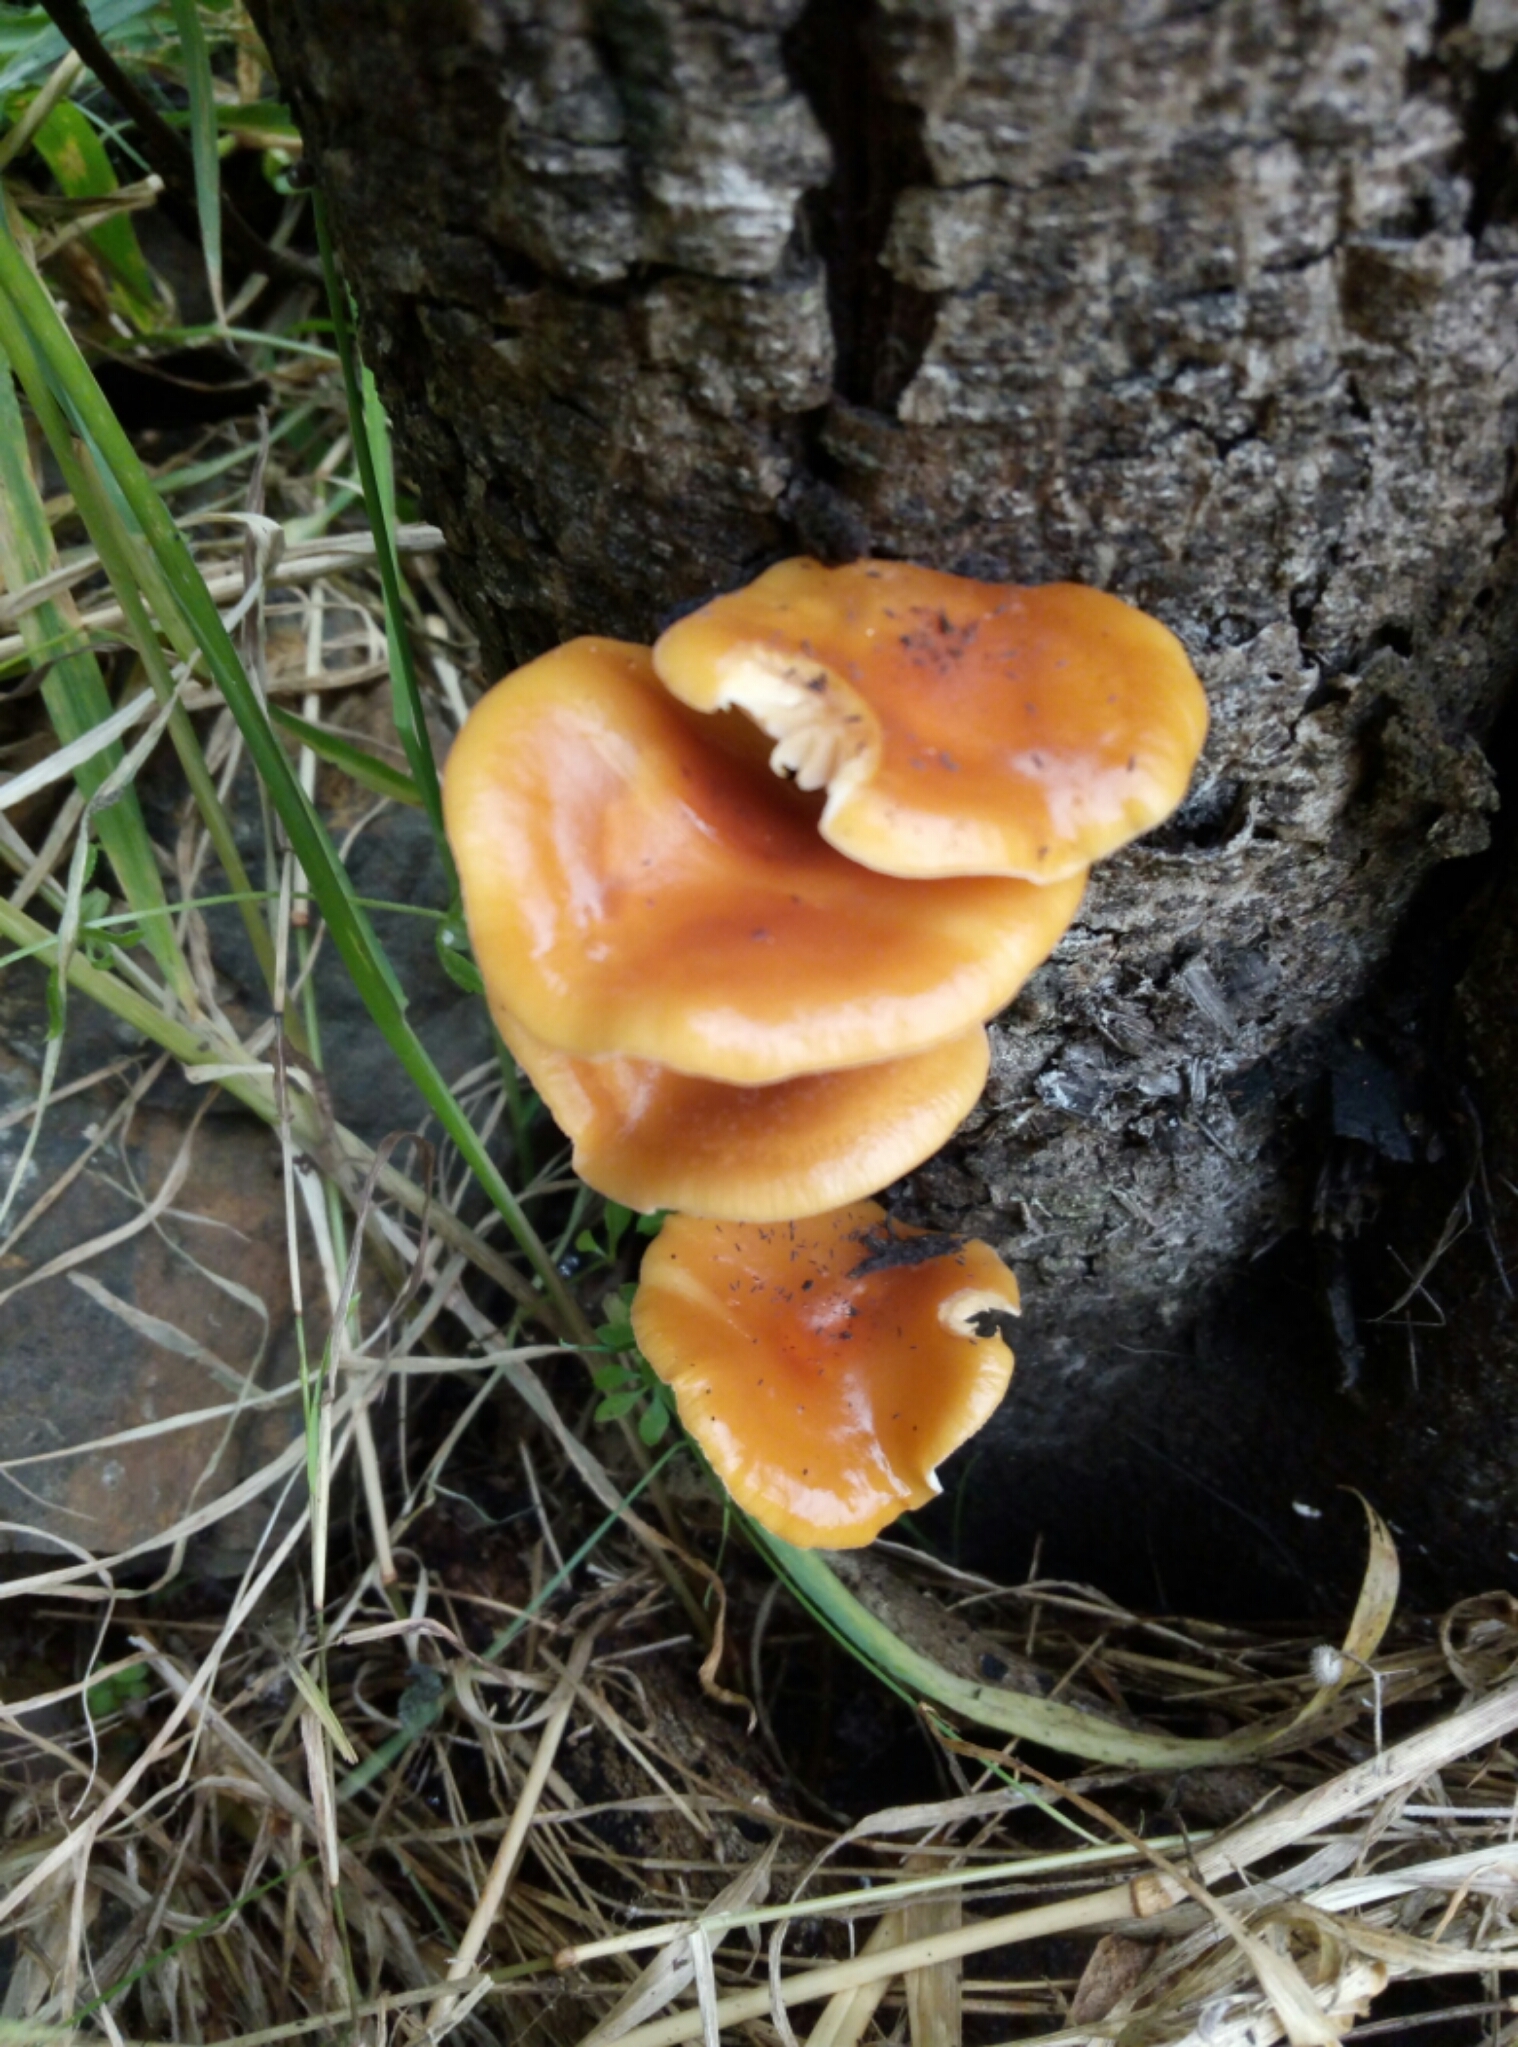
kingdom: Fungi
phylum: Basidiomycota
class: Agaricomycetes
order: Agaricales
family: Physalacriaceae
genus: Flammulina
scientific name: Flammulina velutipes
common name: Velvet shank
